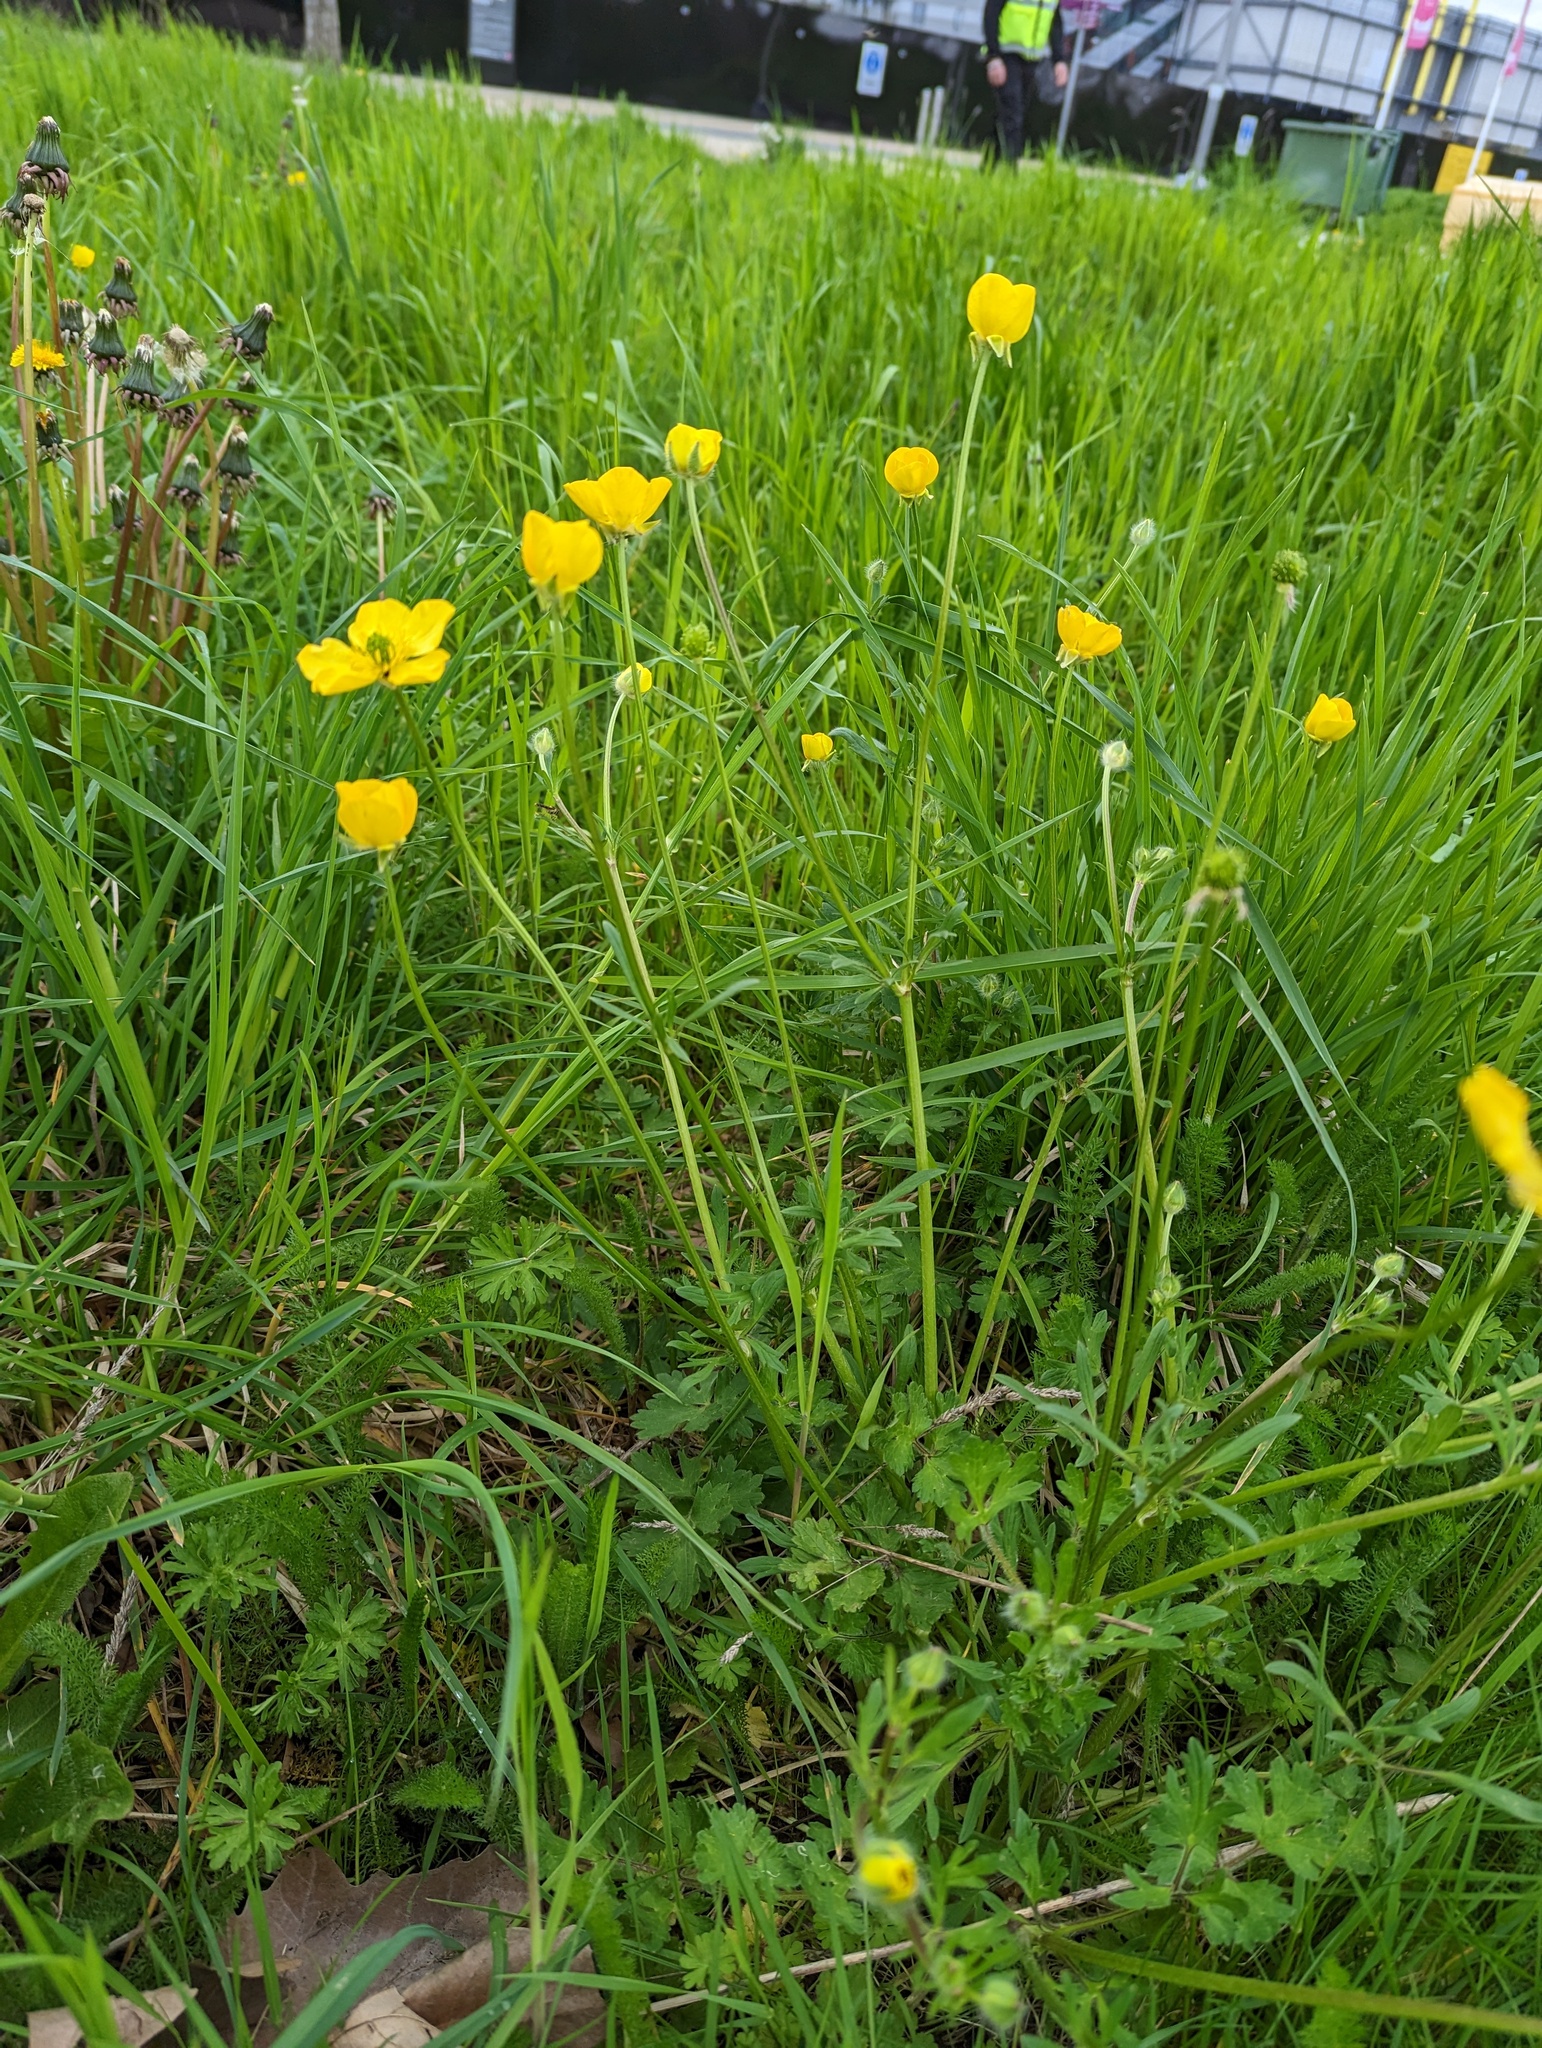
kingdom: Plantae
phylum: Tracheophyta
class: Magnoliopsida
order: Ranunculales
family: Ranunculaceae
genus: Ranunculus
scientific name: Ranunculus bulbosus
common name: Bulbous buttercup
